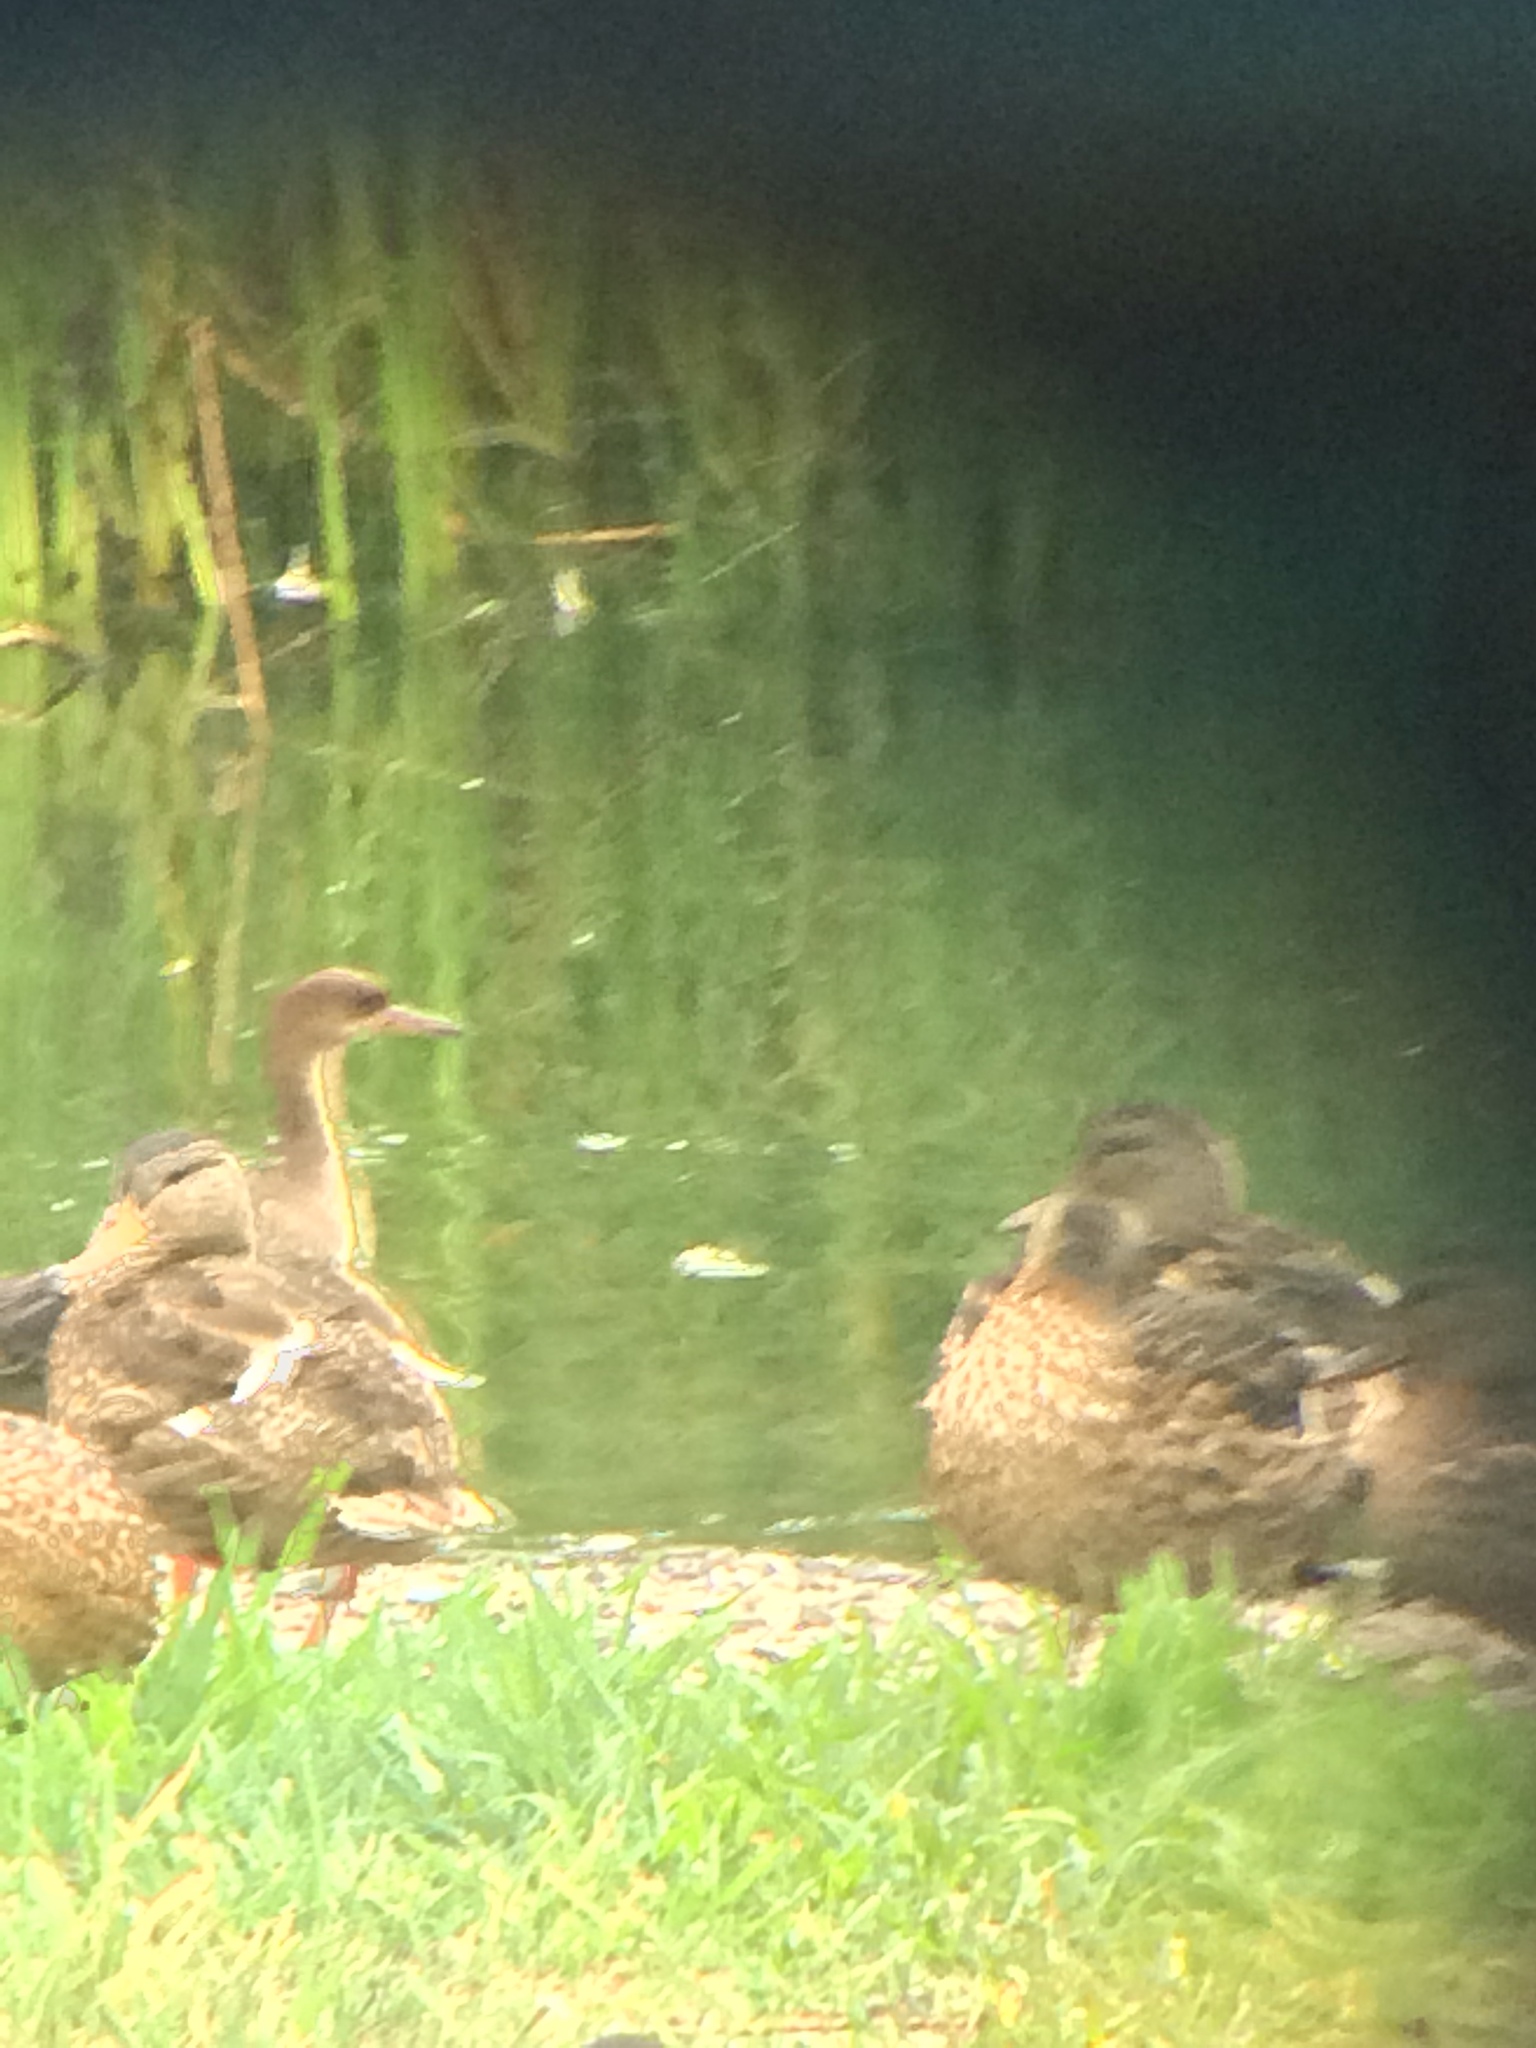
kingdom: Animalia
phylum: Chordata
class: Aves
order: Anseriformes
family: Anatidae
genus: Lophodytes
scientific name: Lophodytes cucullatus
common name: Hooded merganser
